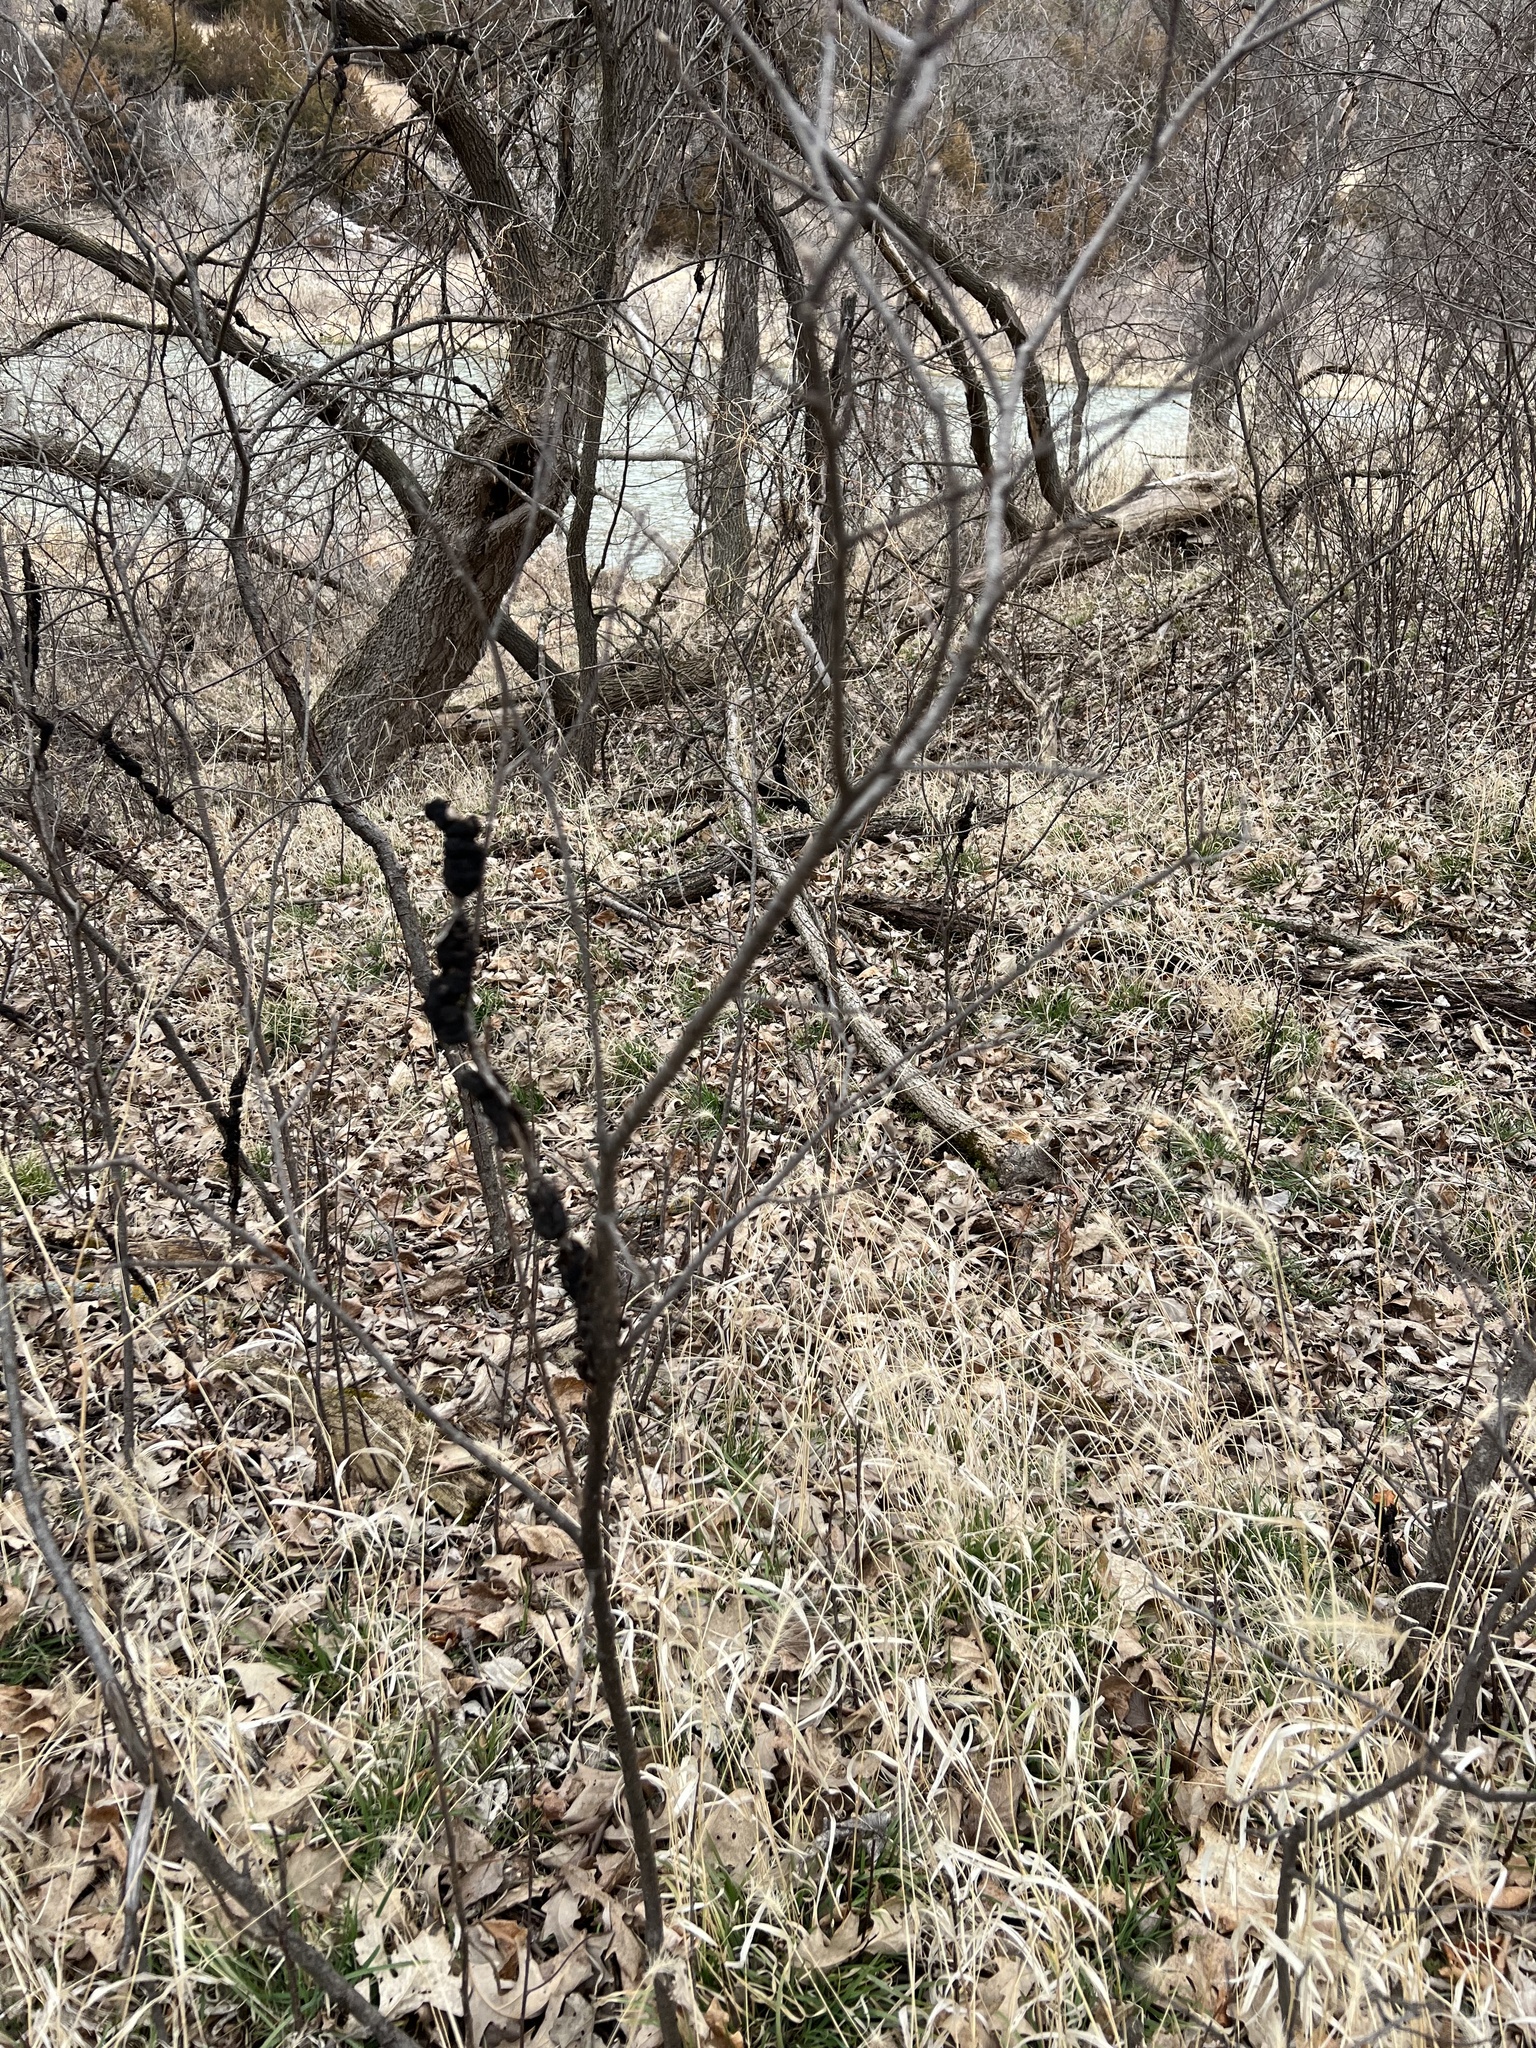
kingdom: Fungi
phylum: Ascomycota
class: Dothideomycetes
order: Venturiales
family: Venturiaceae
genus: Apiosporina
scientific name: Apiosporina morbosa
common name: Black knot
